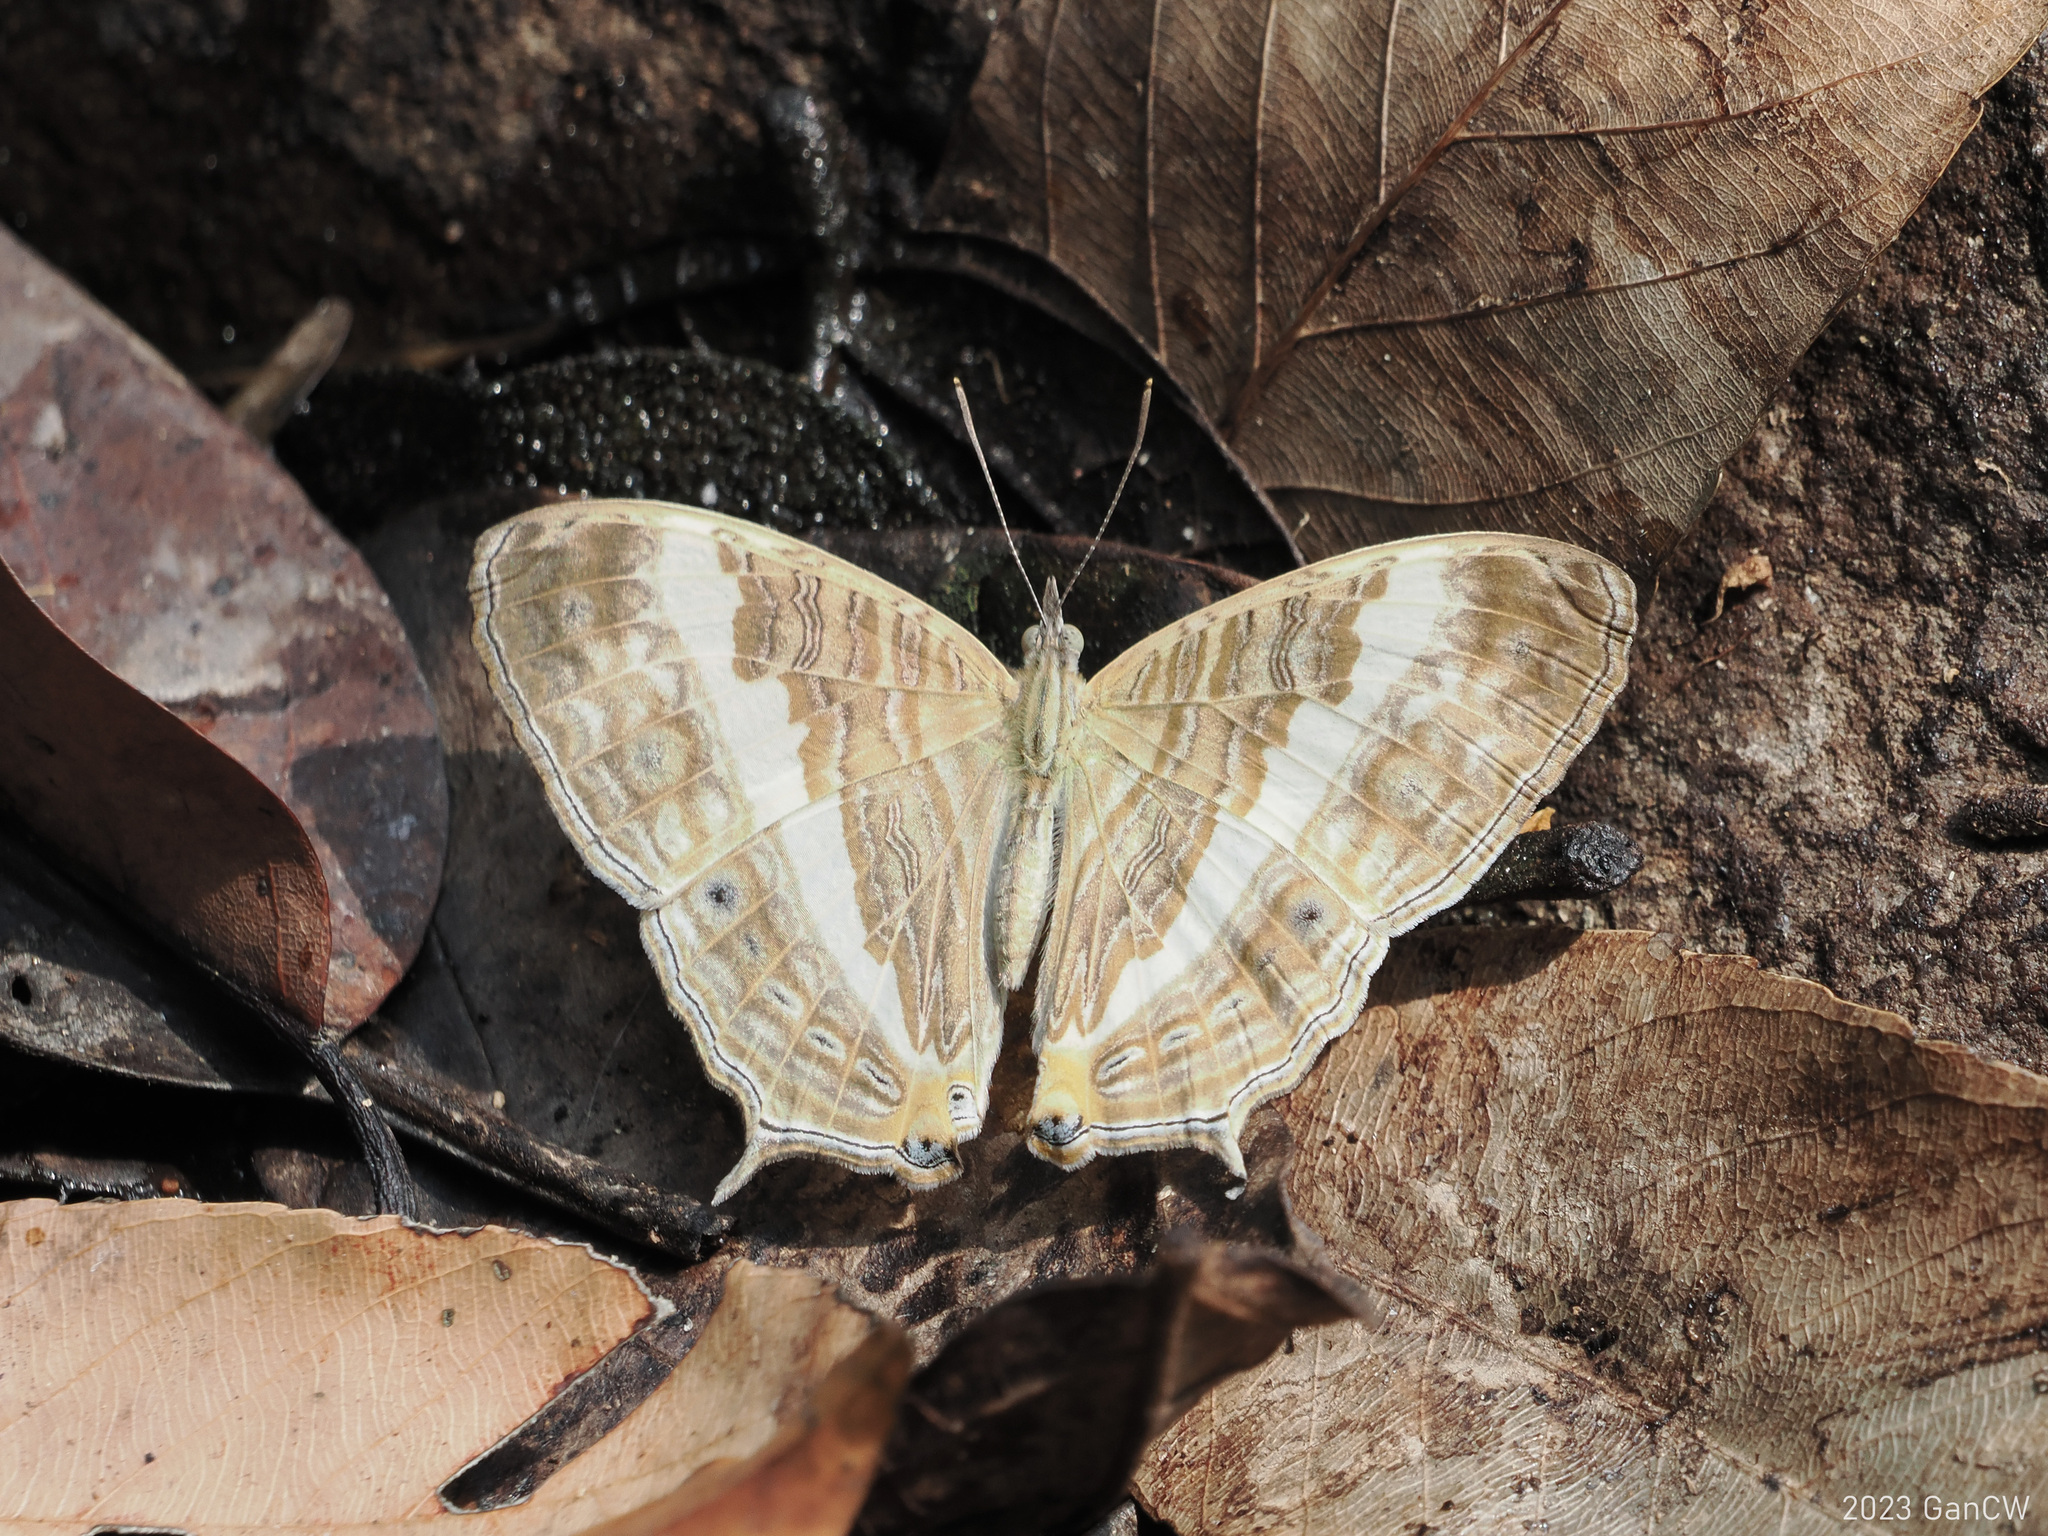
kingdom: Animalia
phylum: Arthropoda
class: Insecta
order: Lepidoptera
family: Nymphalidae
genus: Cyrestis
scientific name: Cyrestis cocles
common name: Marbled map
